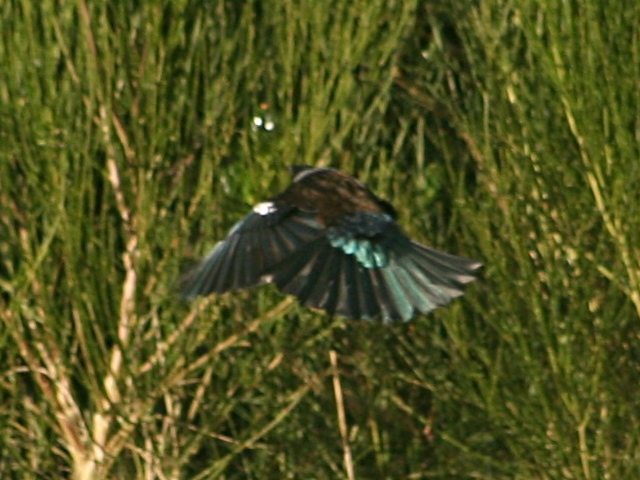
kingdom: Animalia
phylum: Chordata
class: Aves
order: Passeriformes
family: Meliphagidae
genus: Prosthemadera
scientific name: Prosthemadera novaeseelandiae
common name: Tui
